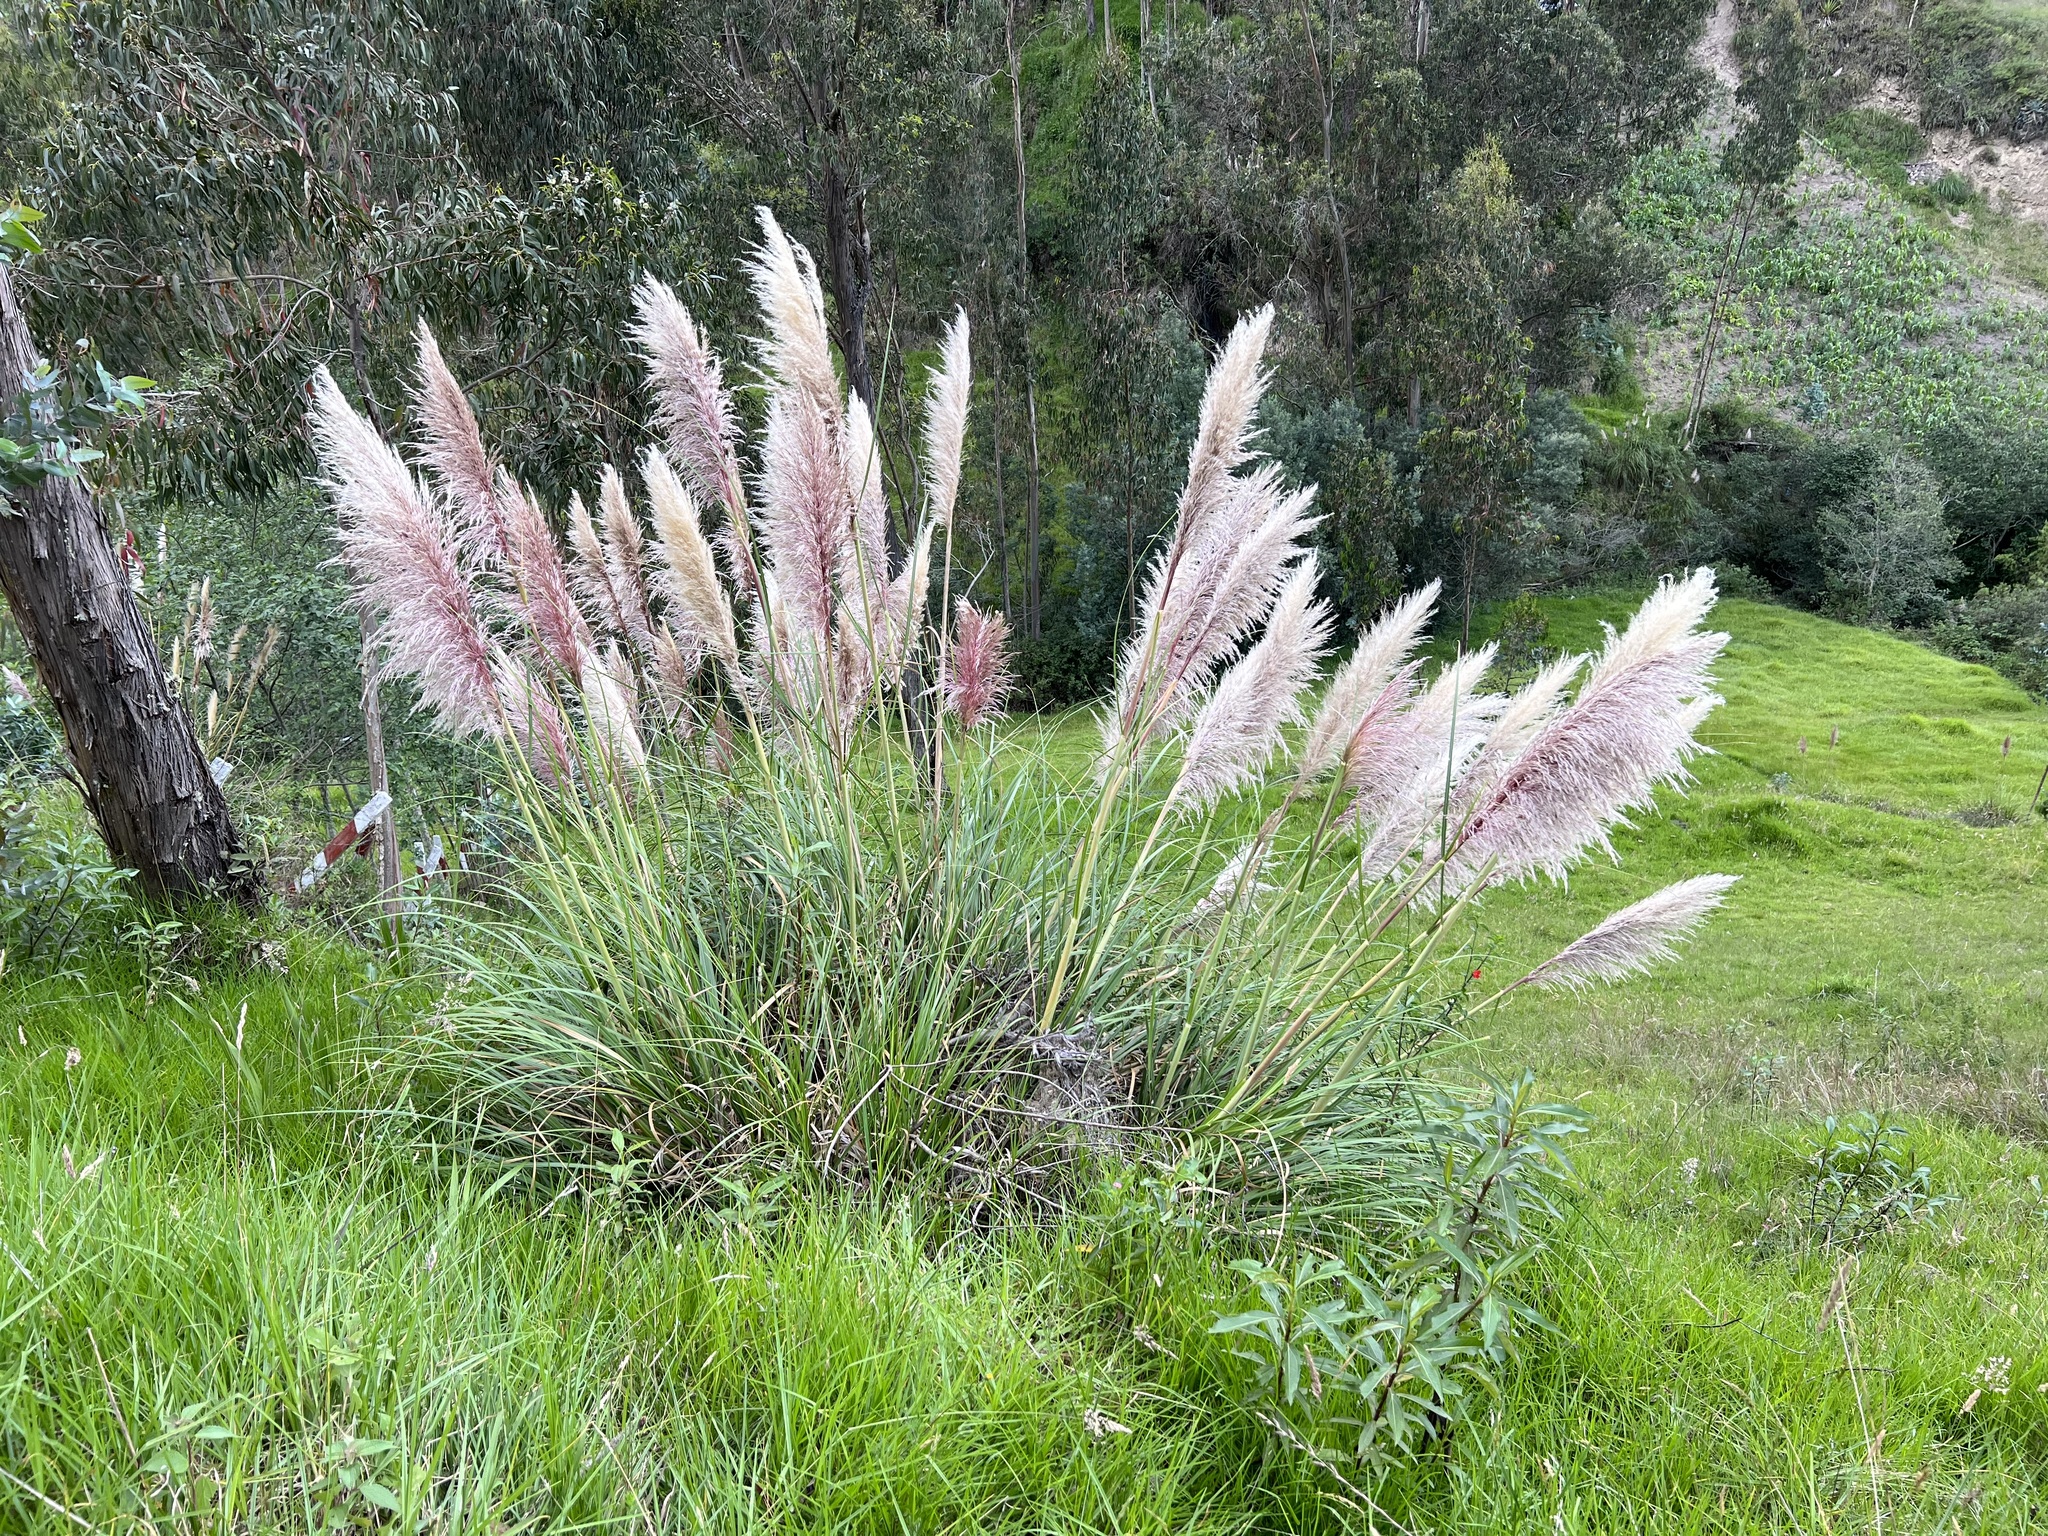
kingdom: Plantae
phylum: Tracheophyta
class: Magnoliopsida
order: Fabales
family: Fabaceae
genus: Phaseolus
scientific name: Phaseolus coccineus
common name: Runner bean
